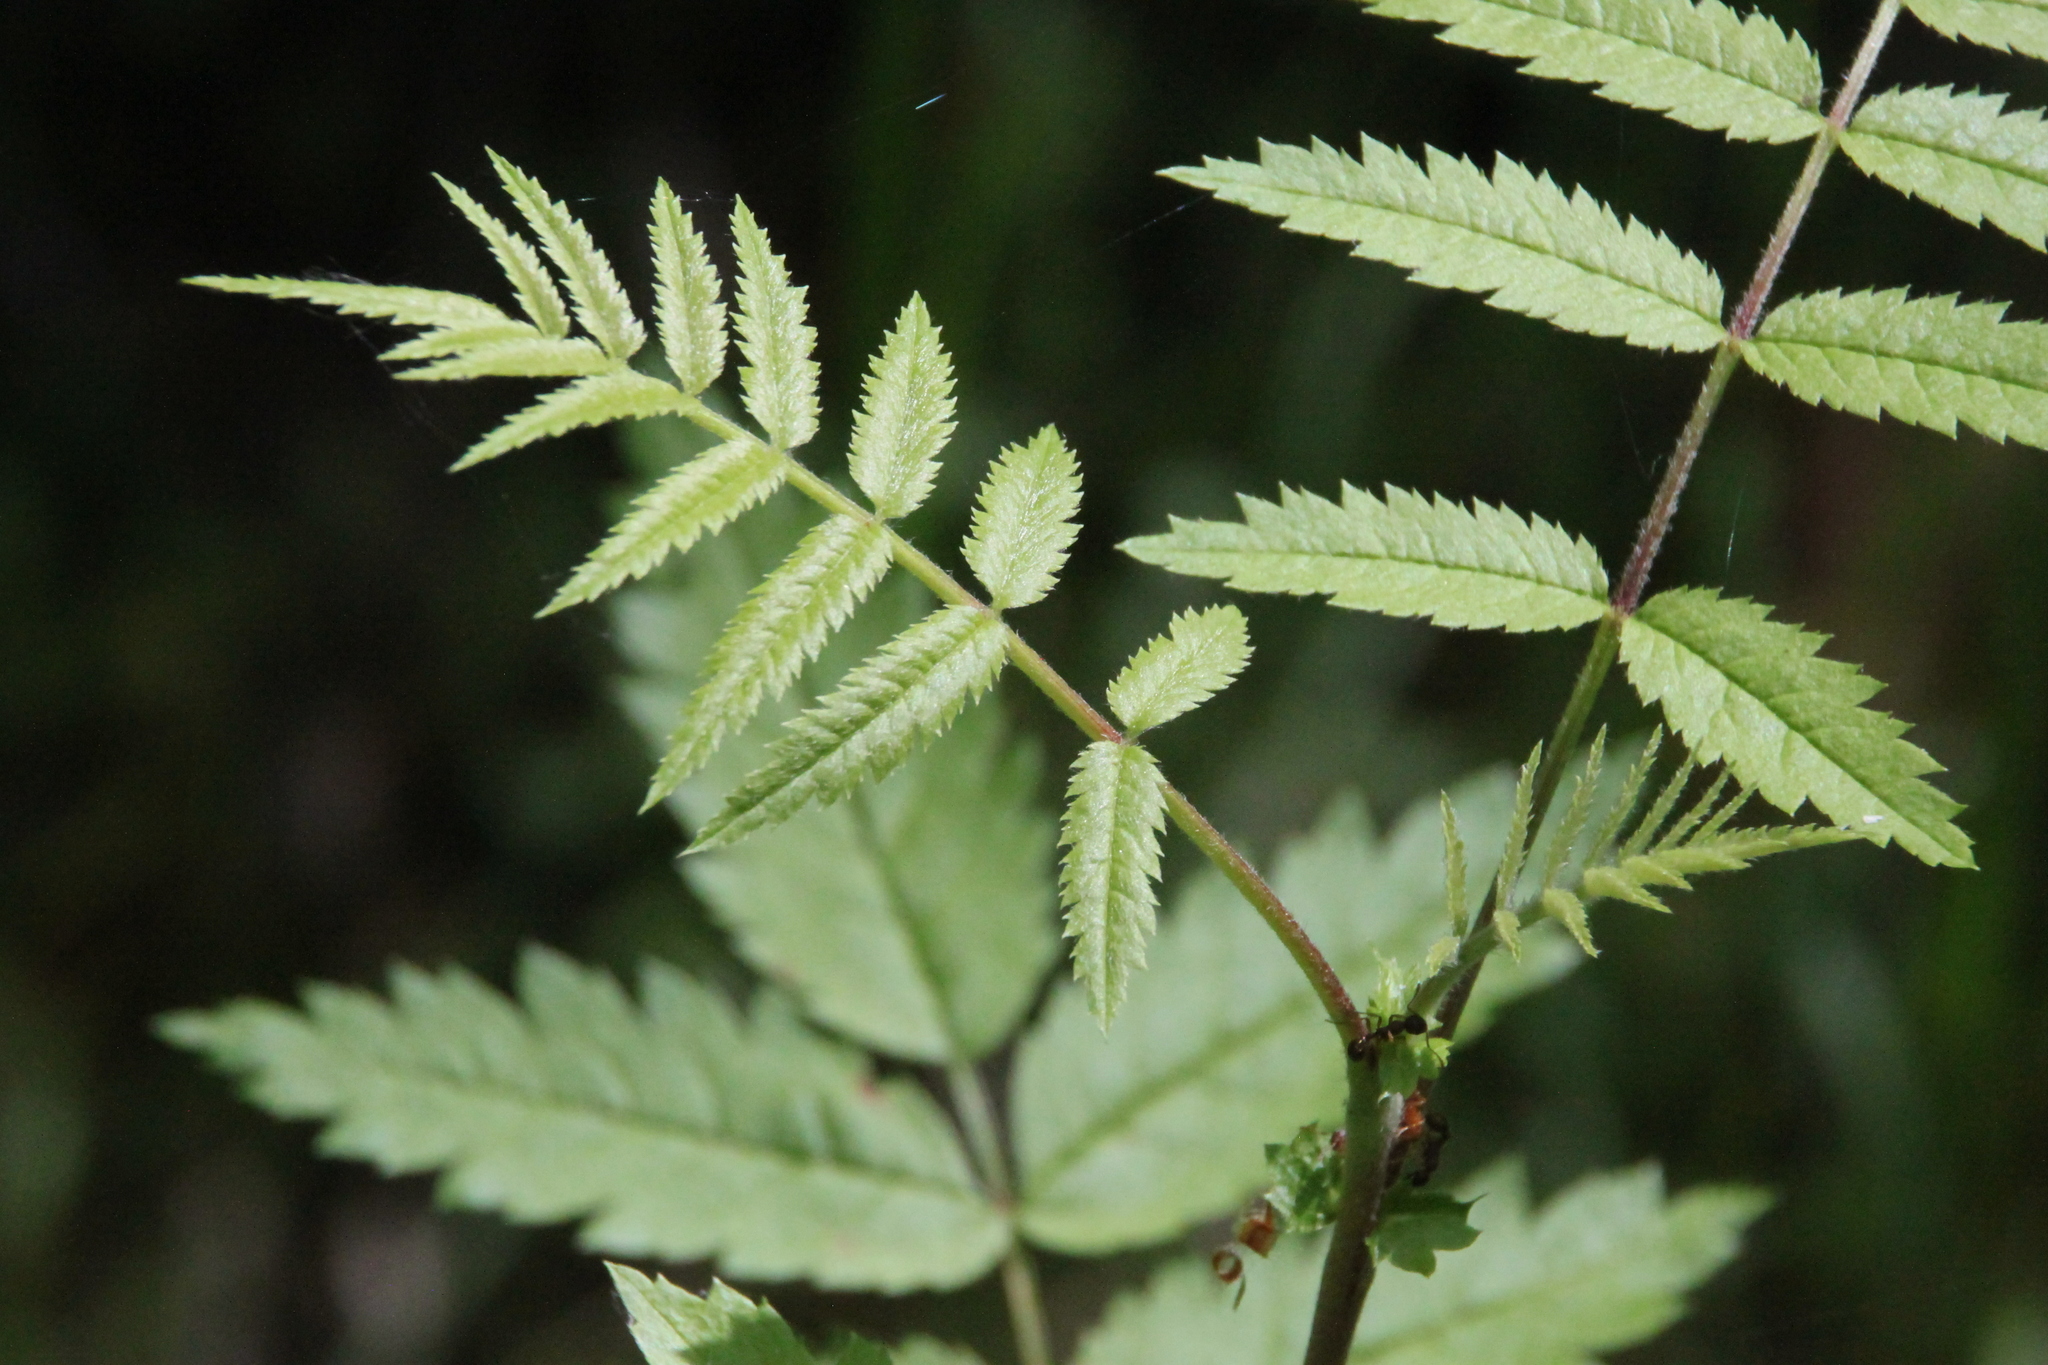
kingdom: Plantae
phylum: Tracheophyta
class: Magnoliopsida
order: Rosales
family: Rosaceae
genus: Sorbus
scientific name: Sorbus aucuparia
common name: Rowan
